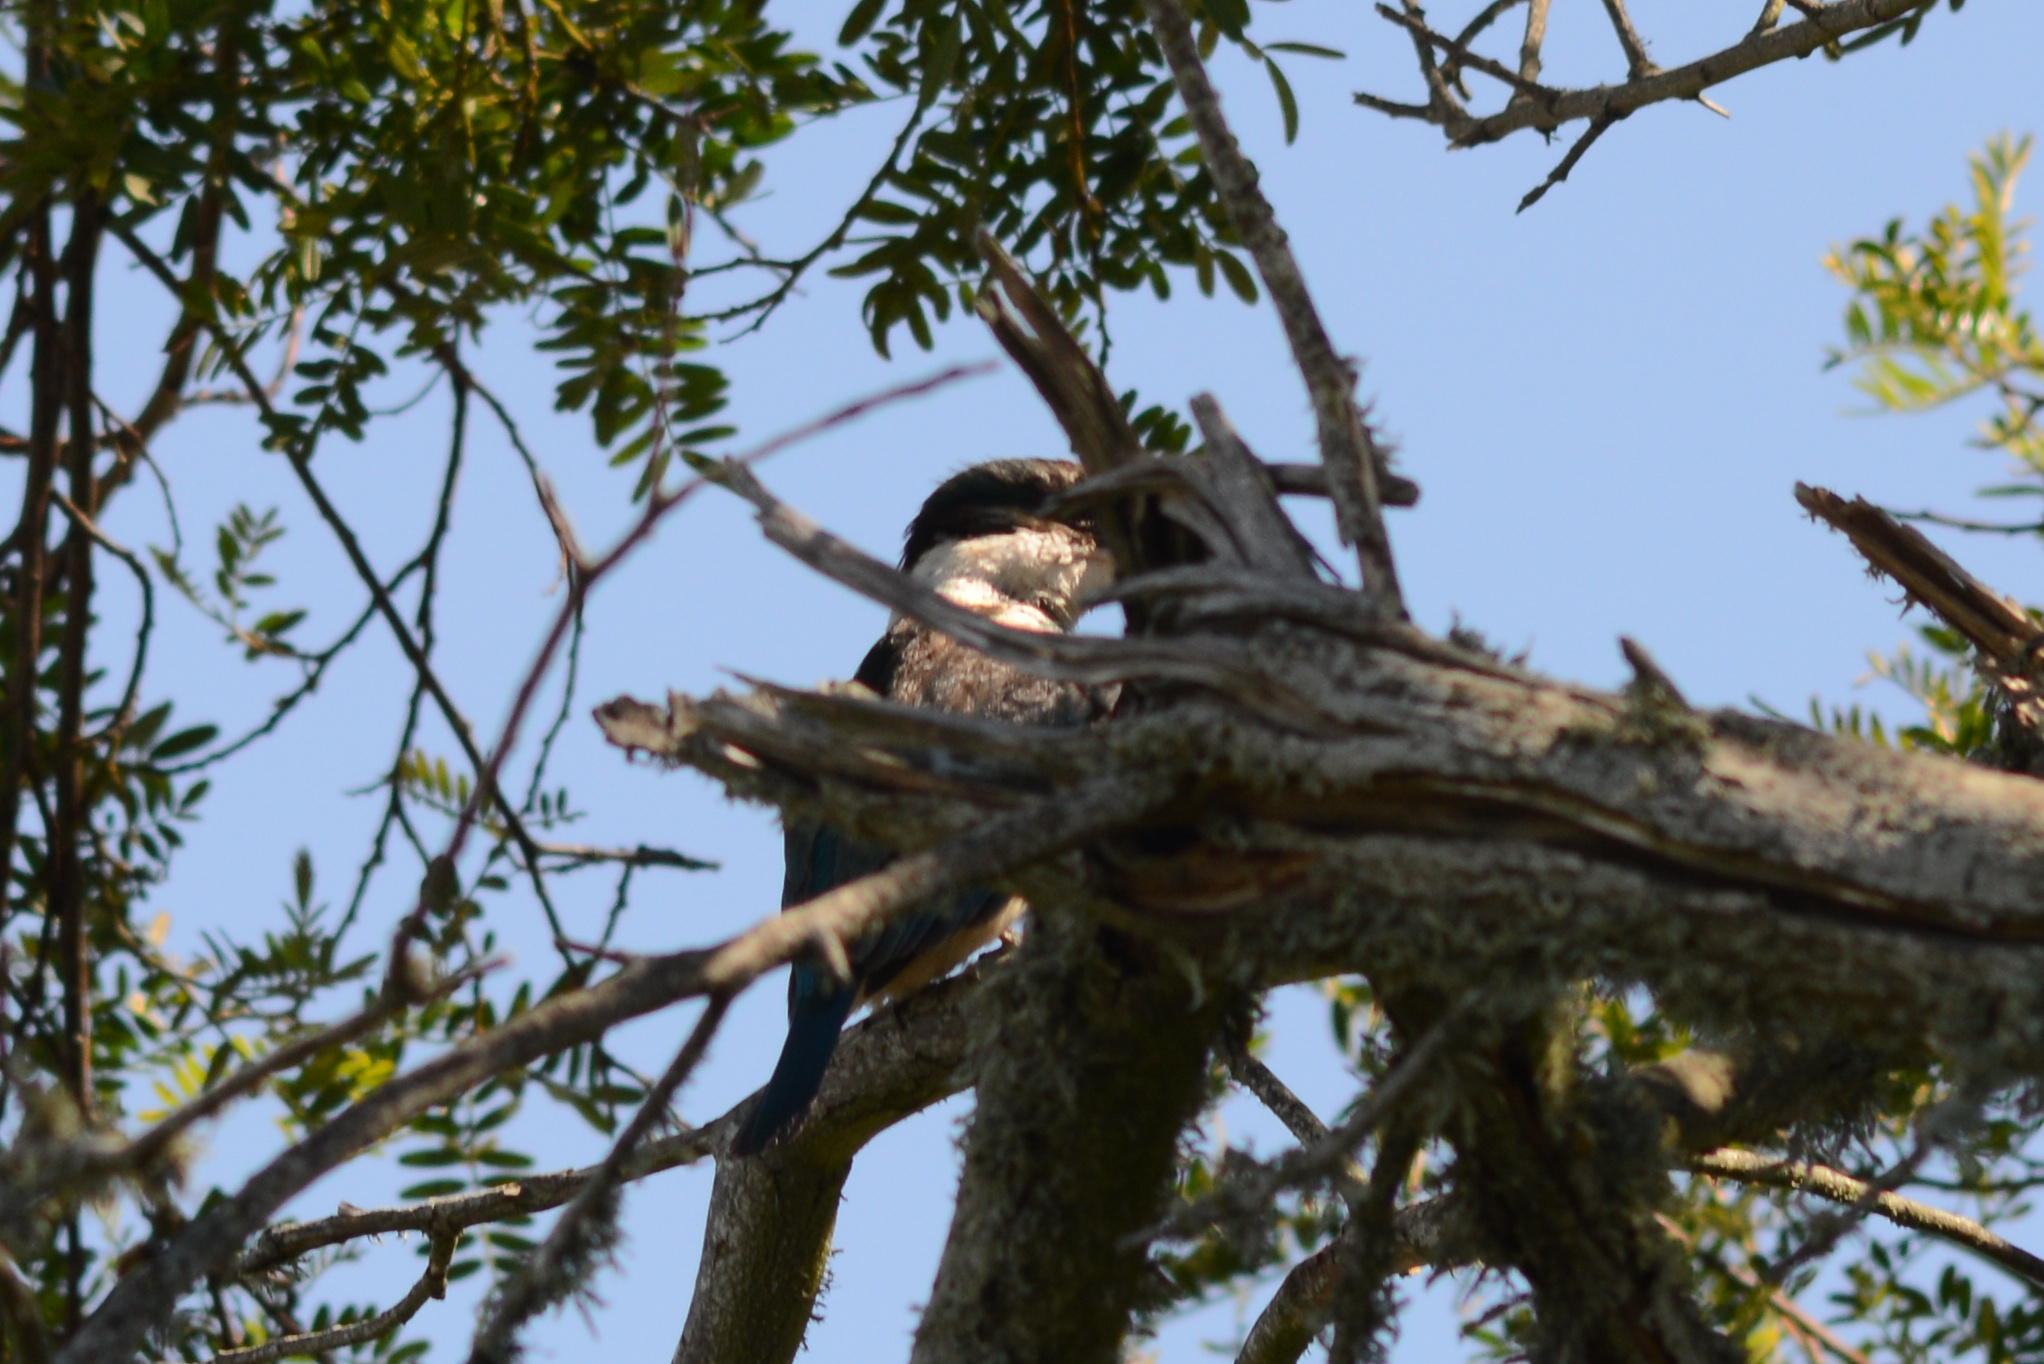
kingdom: Animalia
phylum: Chordata
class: Aves
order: Coraciiformes
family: Alcedinidae
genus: Todiramphus
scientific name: Todiramphus sanctus
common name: Sacred kingfisher
